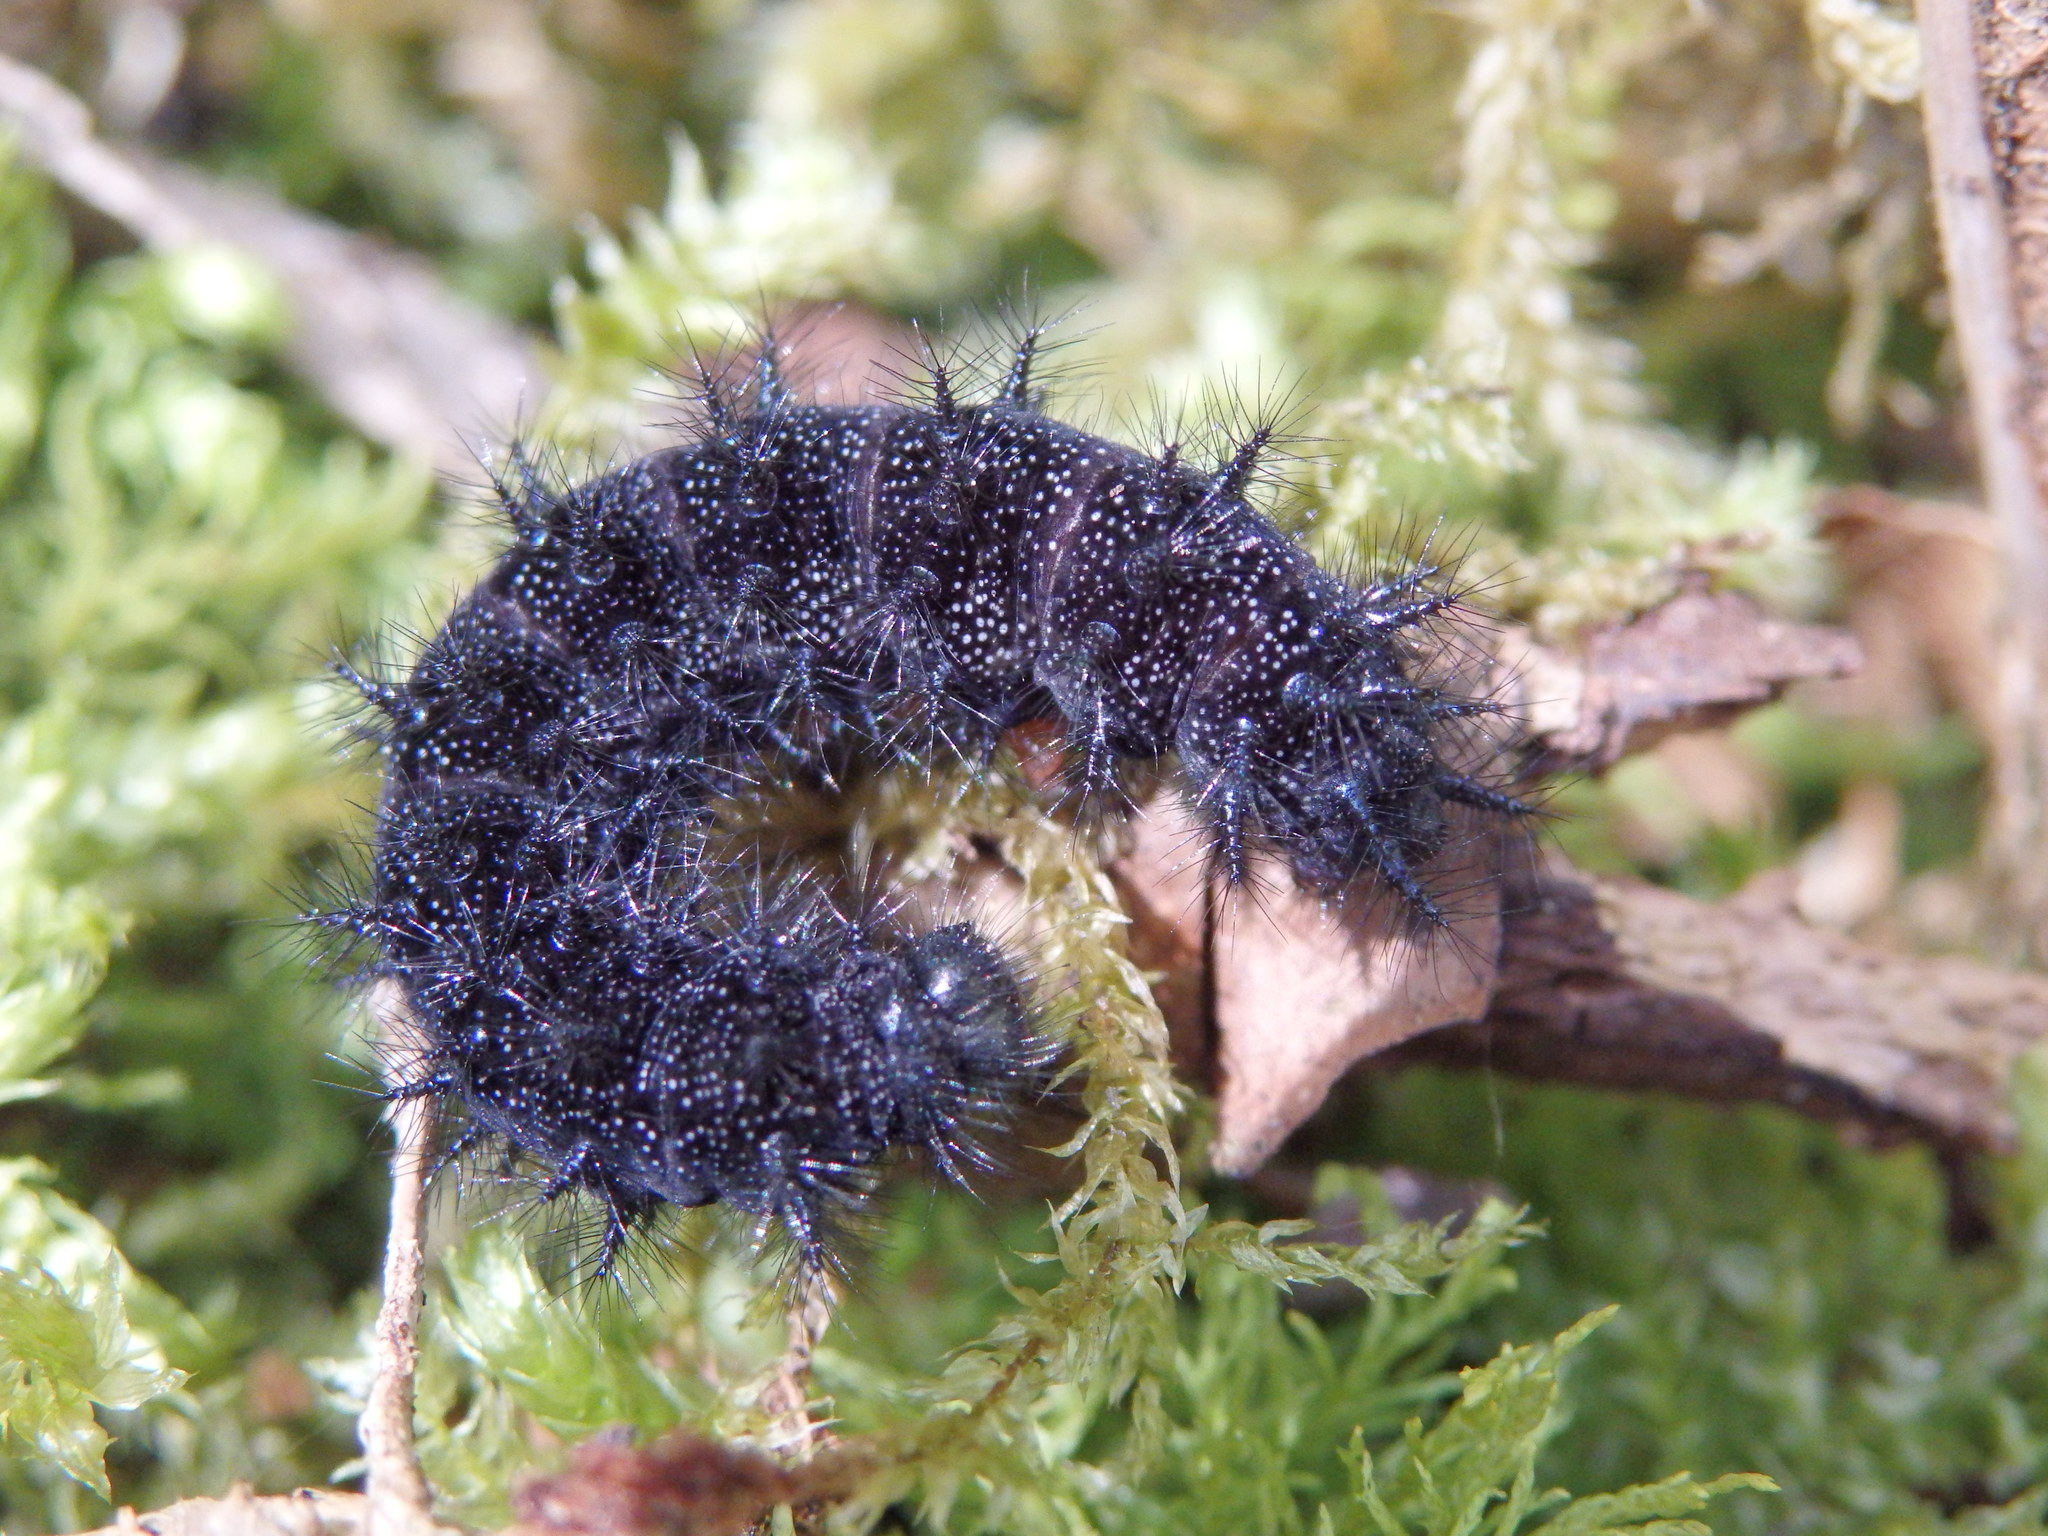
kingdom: Animalia
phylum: Arthropoda
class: Insecta
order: Lepidoptera
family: Nymphalidae
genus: Euphydryas
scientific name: Euphydryas beckeri
